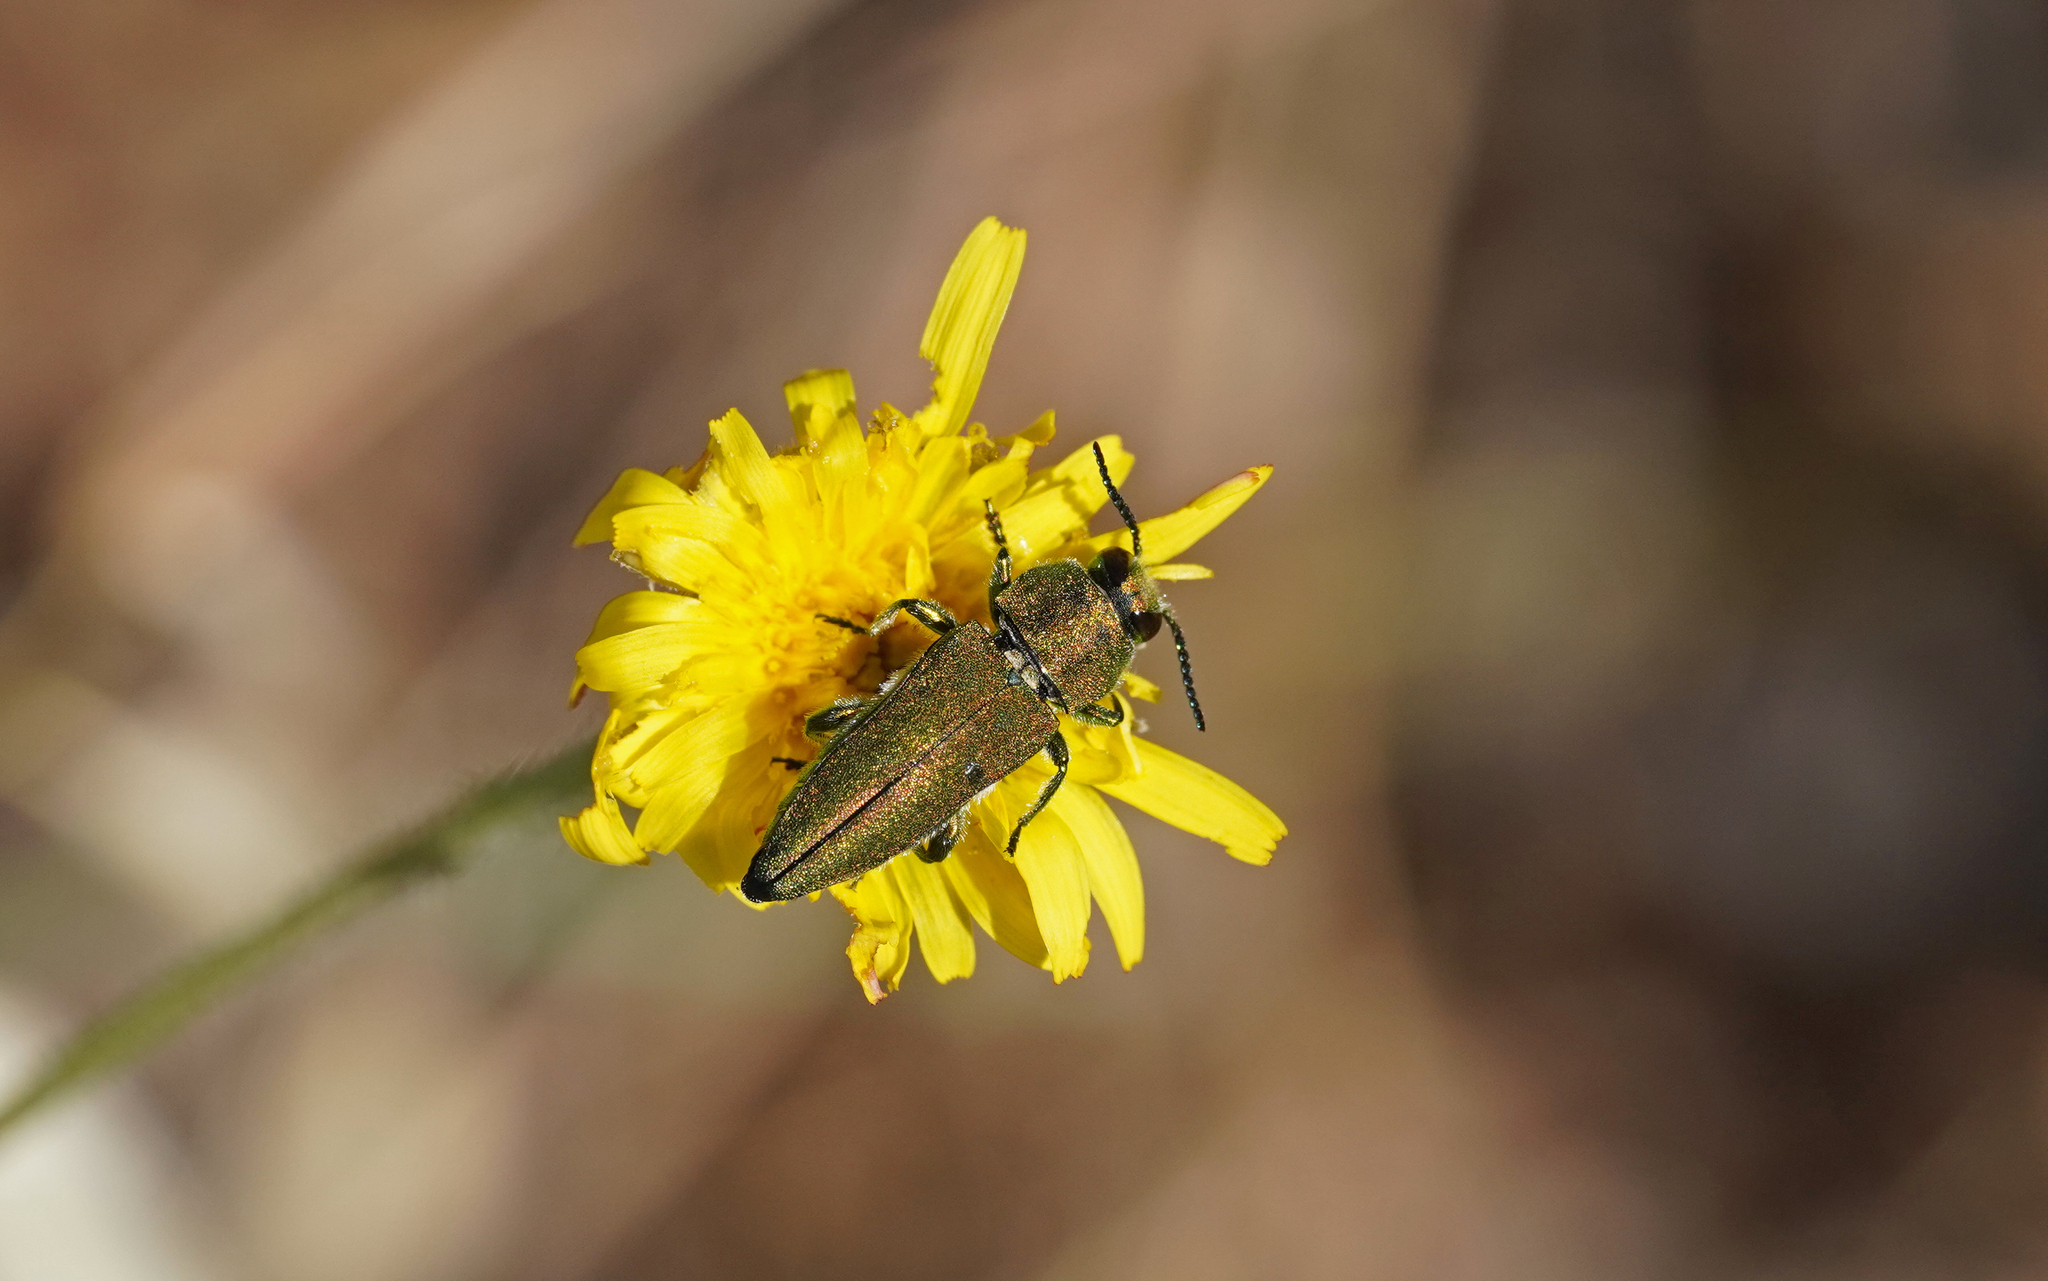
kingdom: Animalia
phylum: Arthropoda
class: Insecta
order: Coleoptera
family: Buprestidae
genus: Anthaxia
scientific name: Anthaxia hungarica
